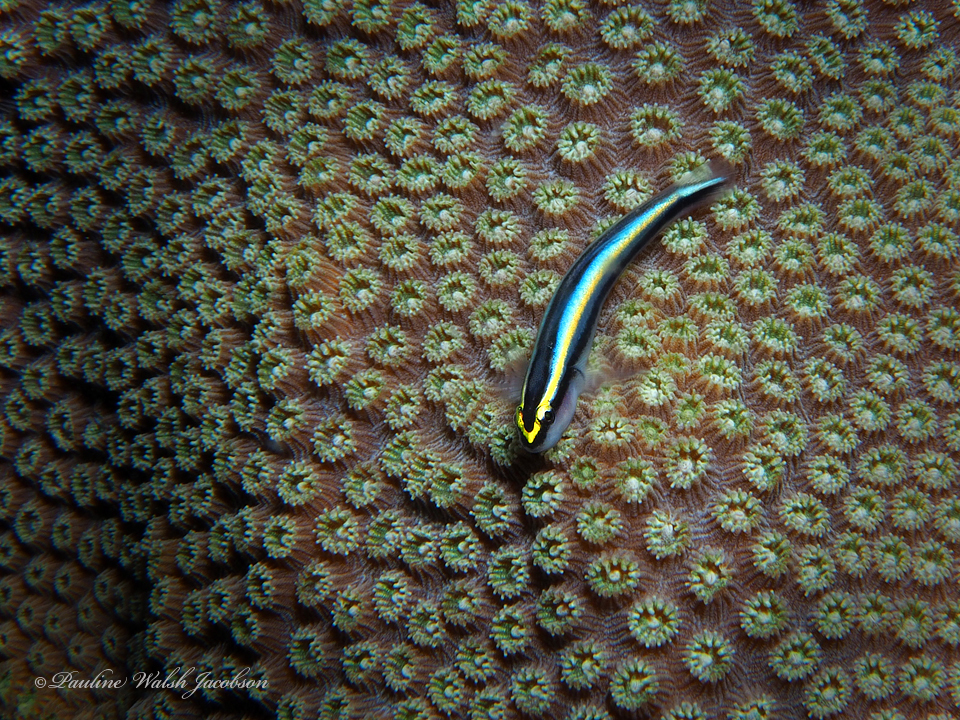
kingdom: Animalia
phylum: Chordata
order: Perciformes
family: Gobiidae
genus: Elacatinus
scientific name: Elacatinus evelynae
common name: Sharknose goby
